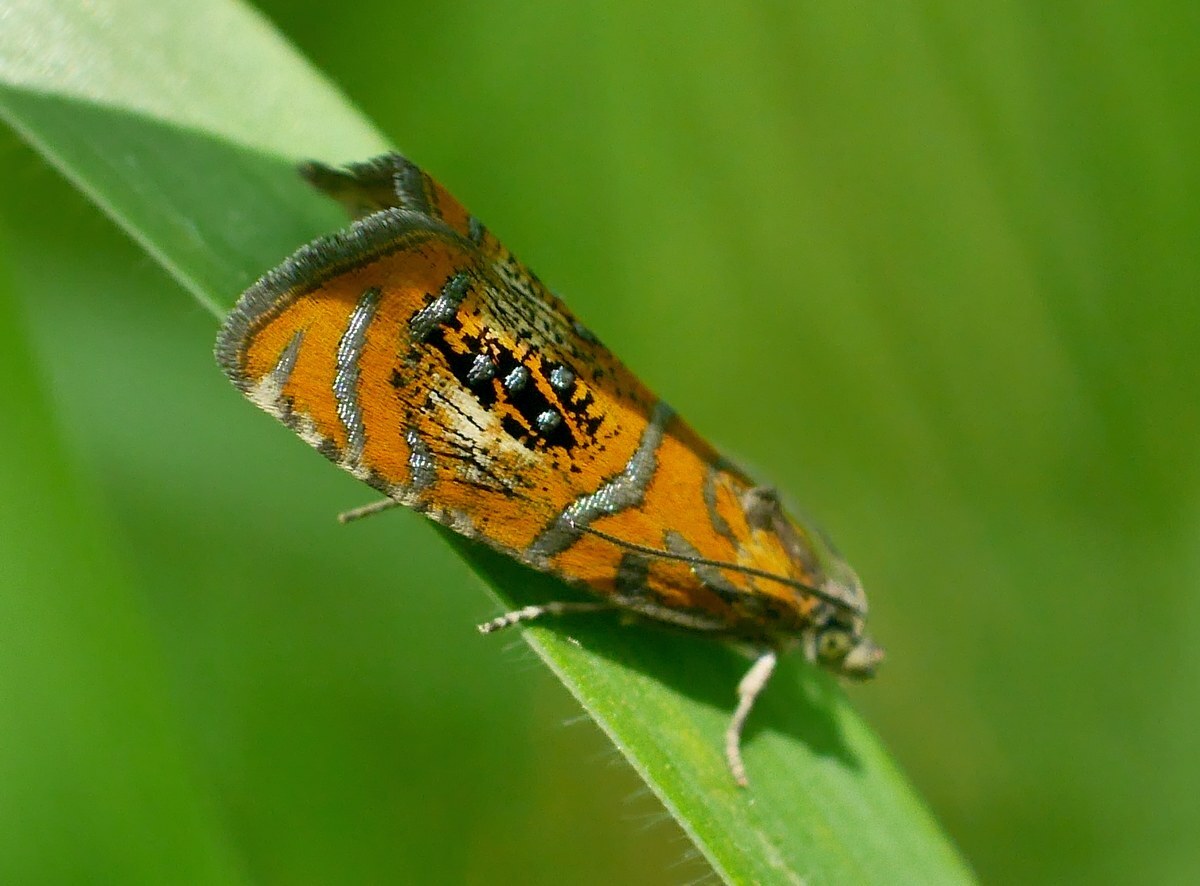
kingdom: Animalia
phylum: Arthropoda
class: Insecta
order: Lepidoptera
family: Tortricidae
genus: Olethreutes
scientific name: Olethreutes arcuella
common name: Arched marble
